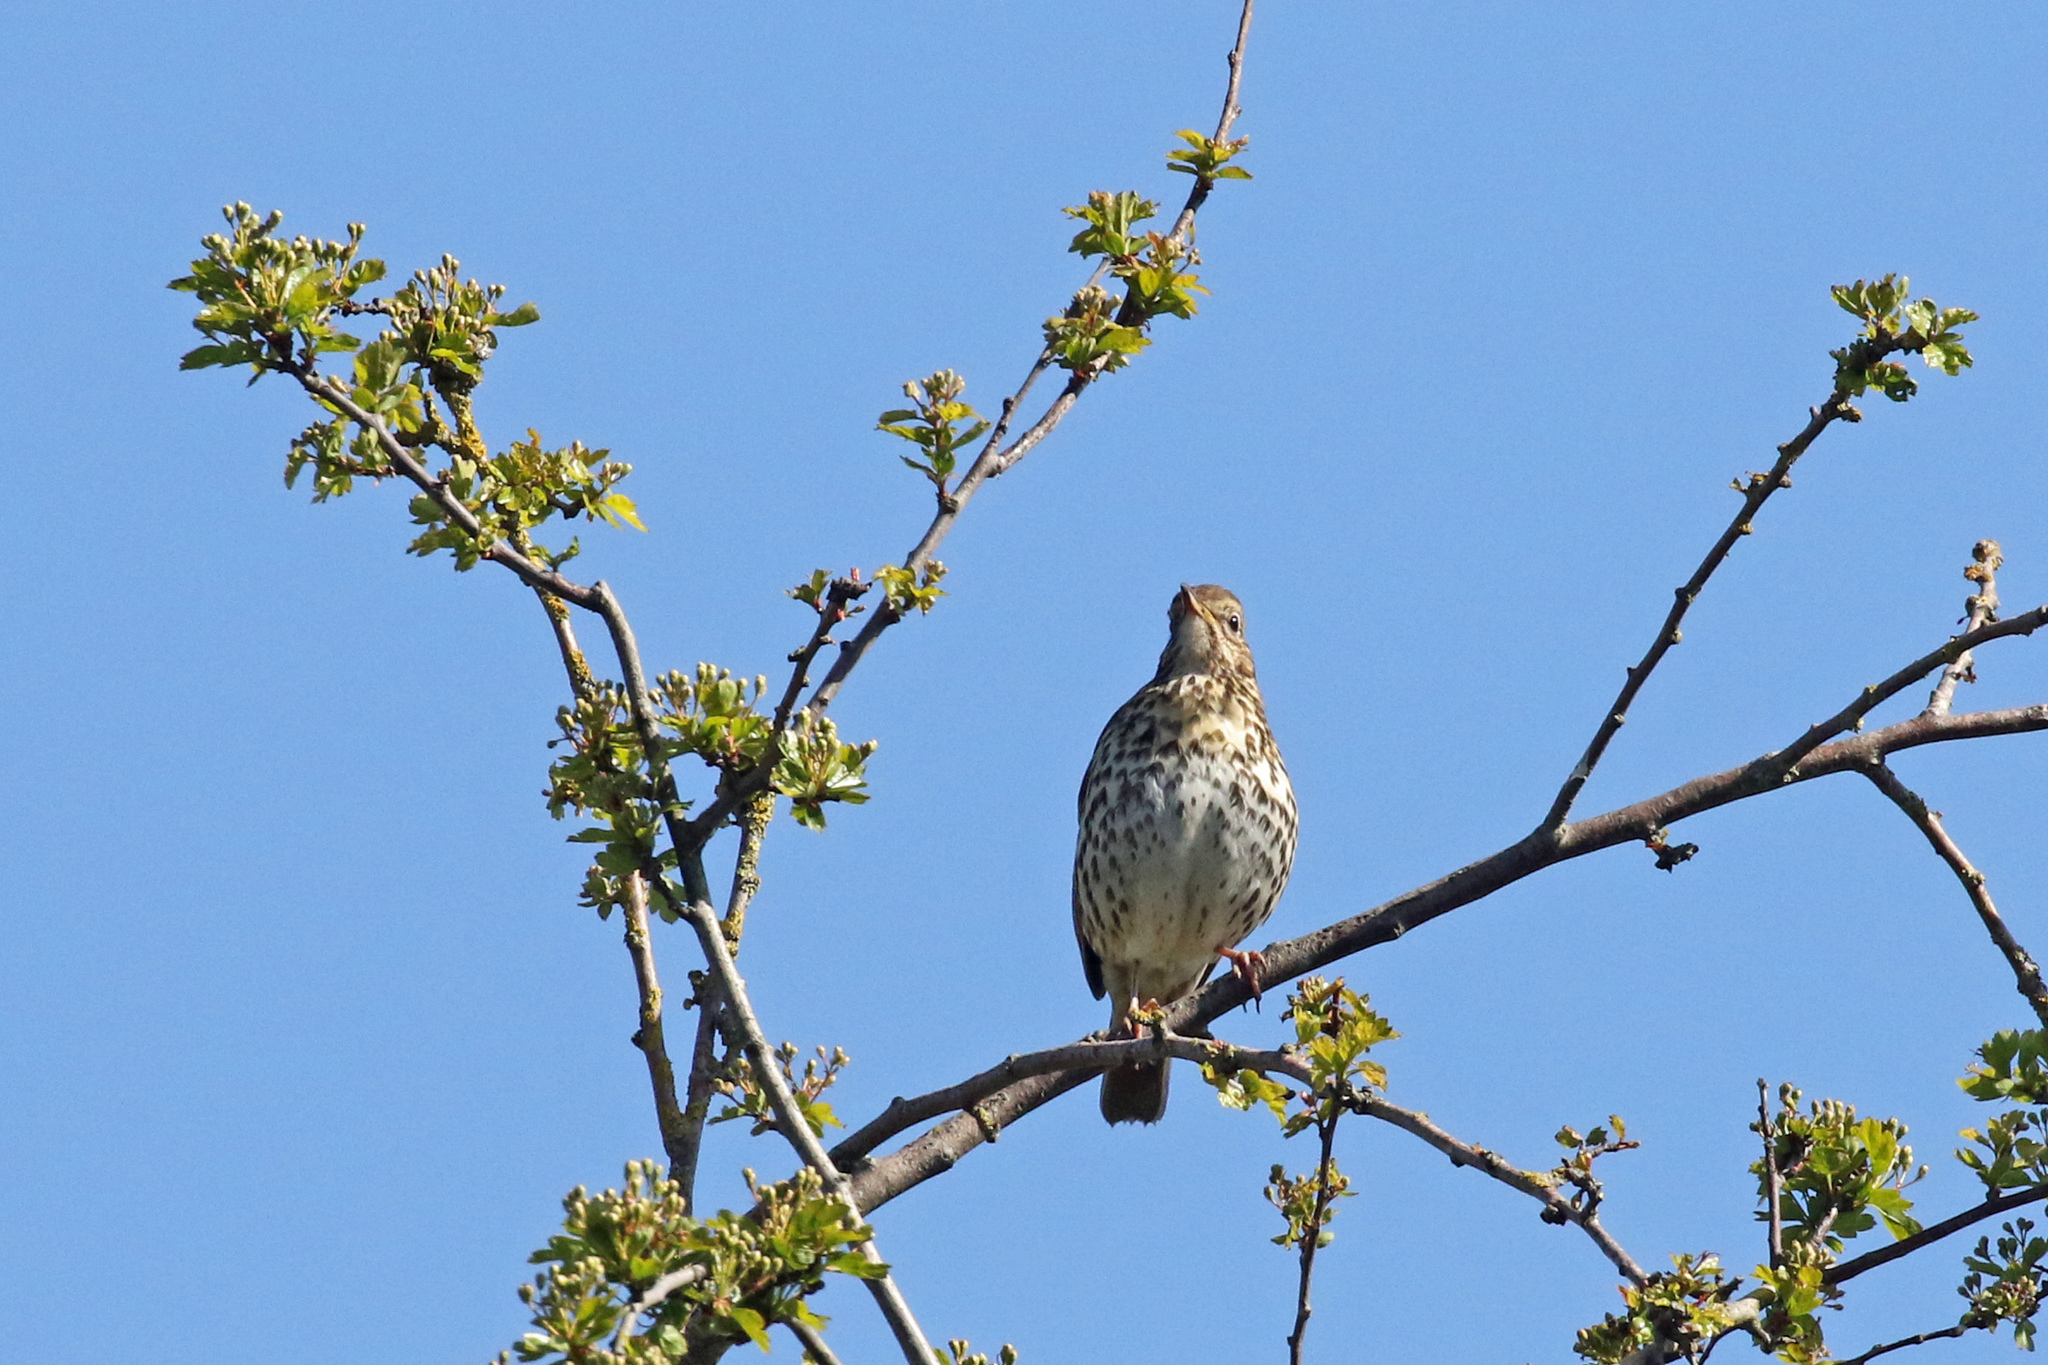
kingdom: Animalia
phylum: Chordata
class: Aves
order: Passeriformes
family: Turdidae
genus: Turdus
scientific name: Turdus philomelos
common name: Song thrush
